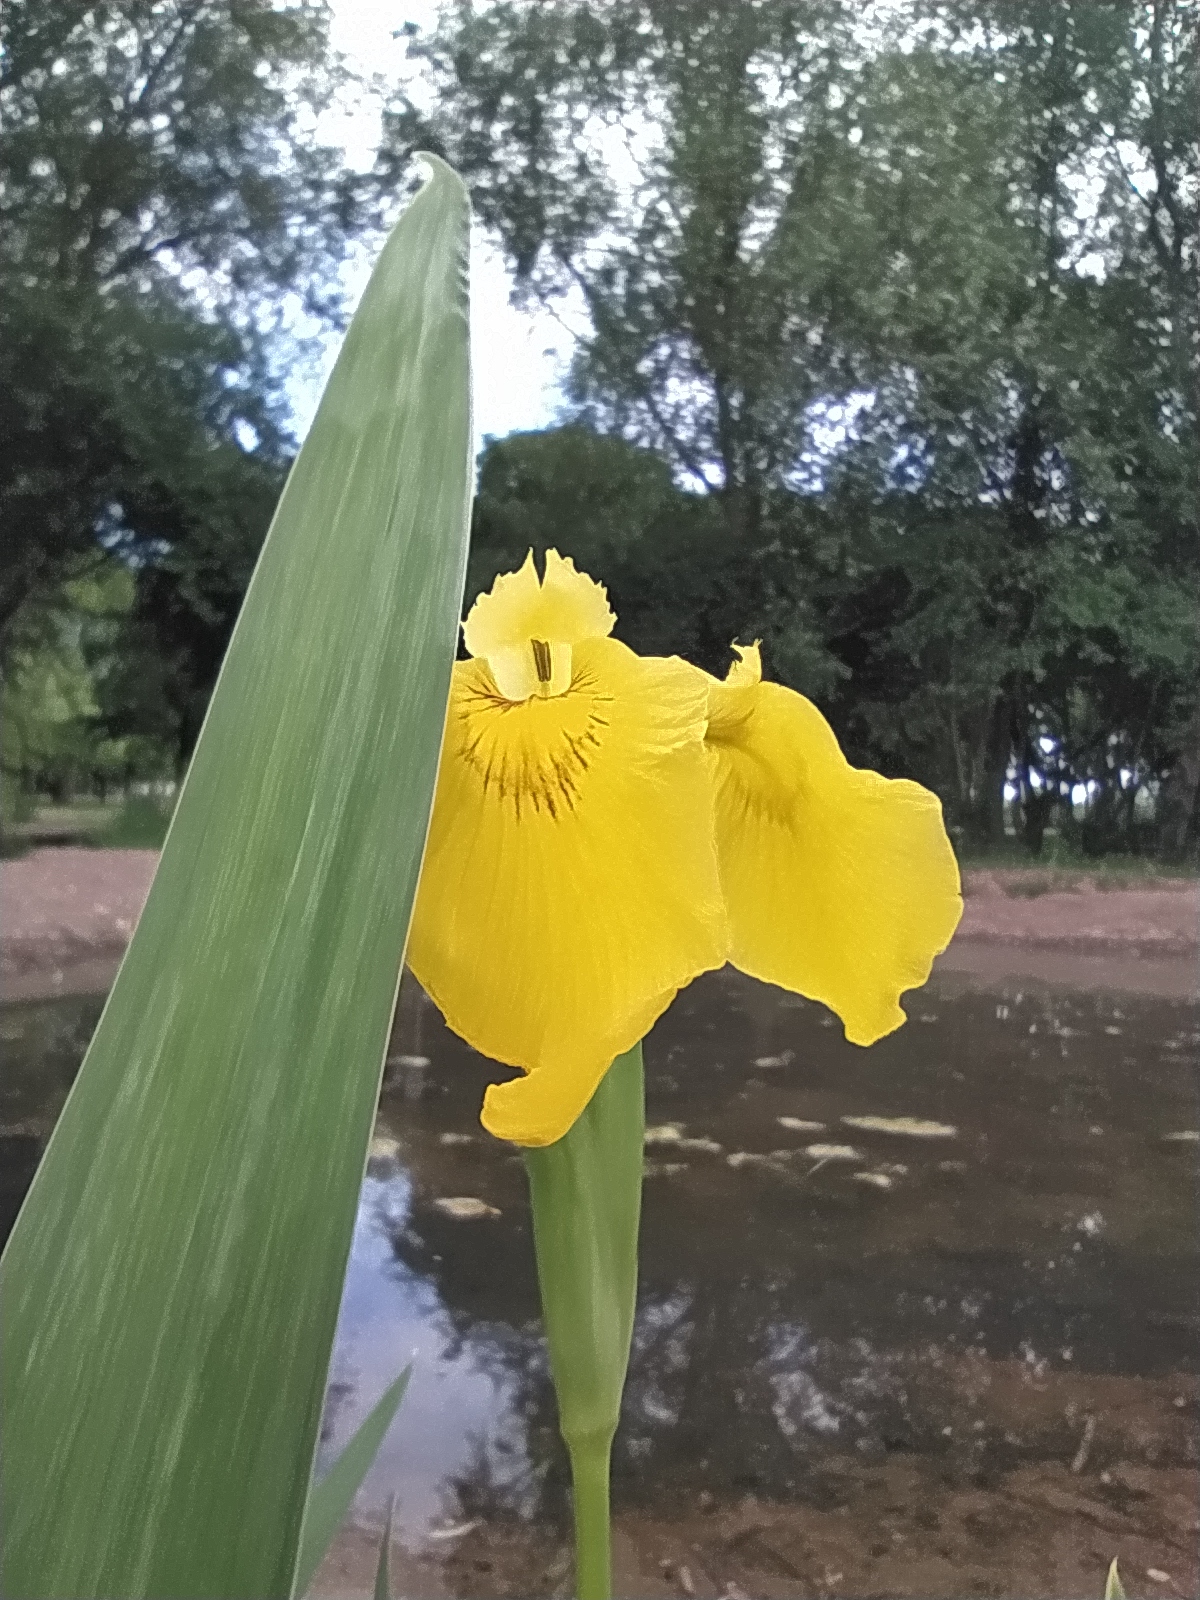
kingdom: Plantae
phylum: Tracheophyta
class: Liliopsida
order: Asparagales
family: Iridaceae
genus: Iris
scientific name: Iris pseudacorus
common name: Yellow flag
